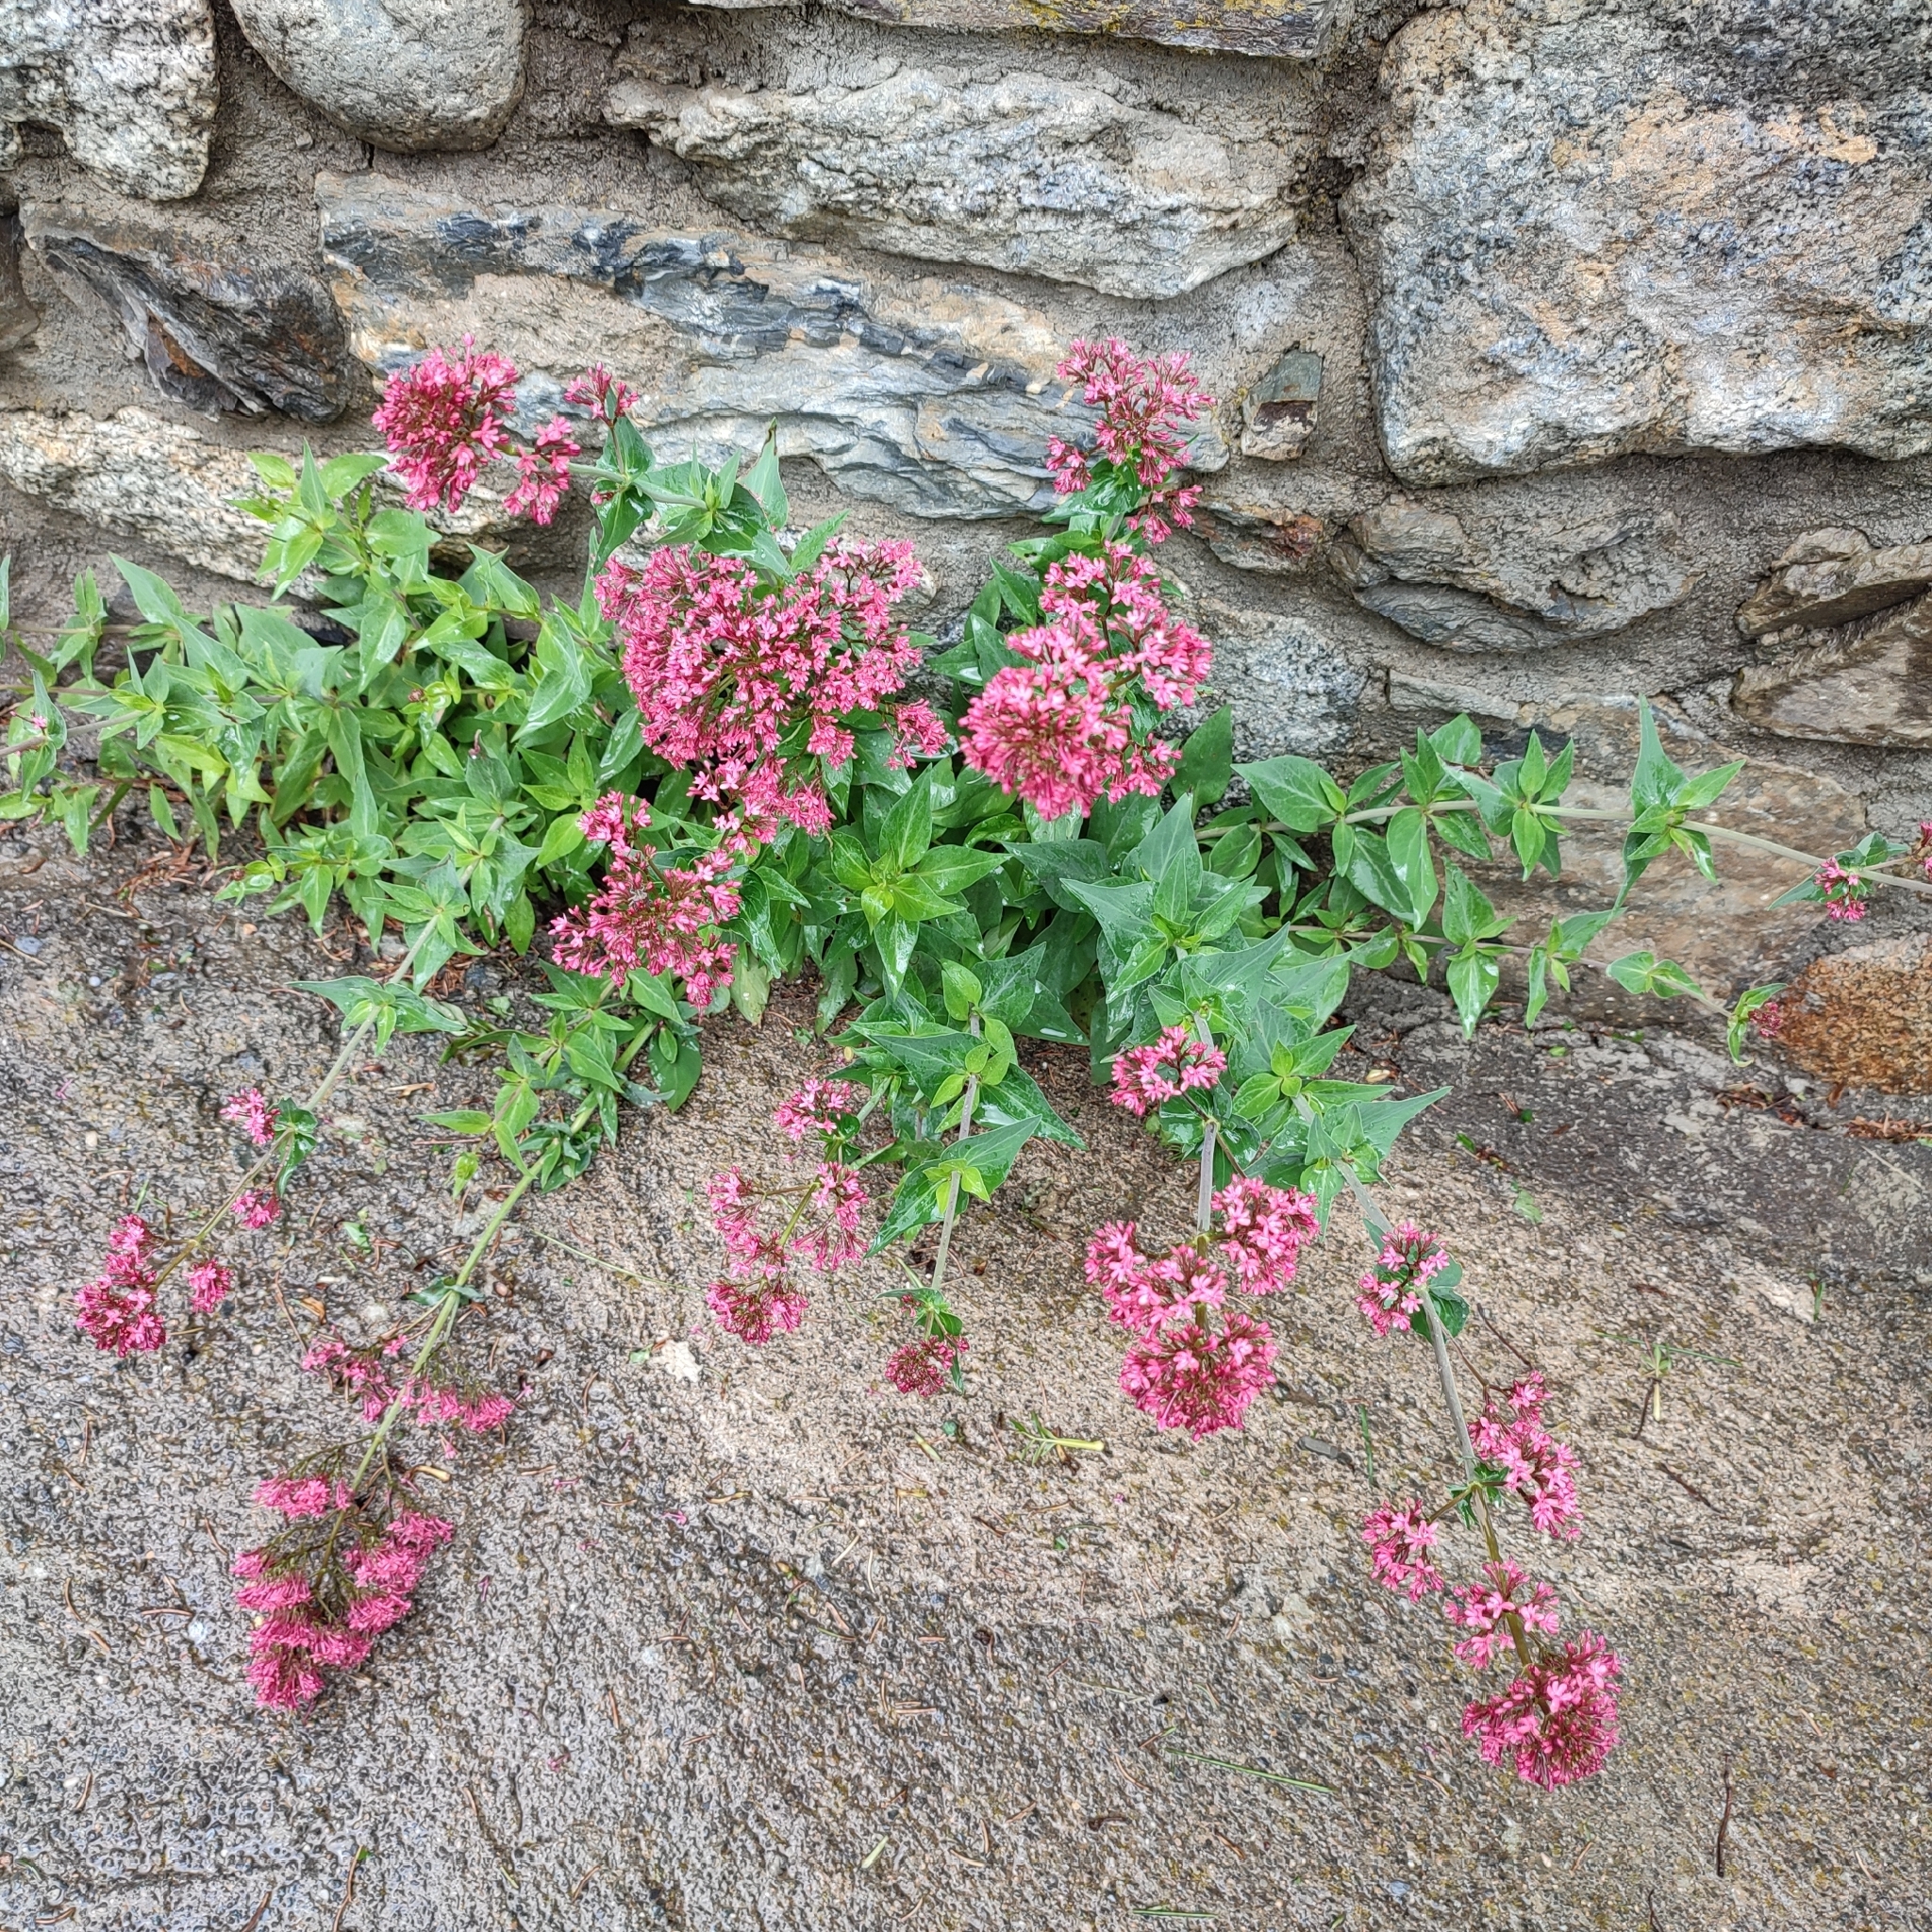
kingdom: Plantae
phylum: Tracheophyta
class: Magnoliopsida
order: Dipsacales
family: Caprifoliaceae
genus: Centranthus
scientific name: Centranthus ruber
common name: Red valerian
